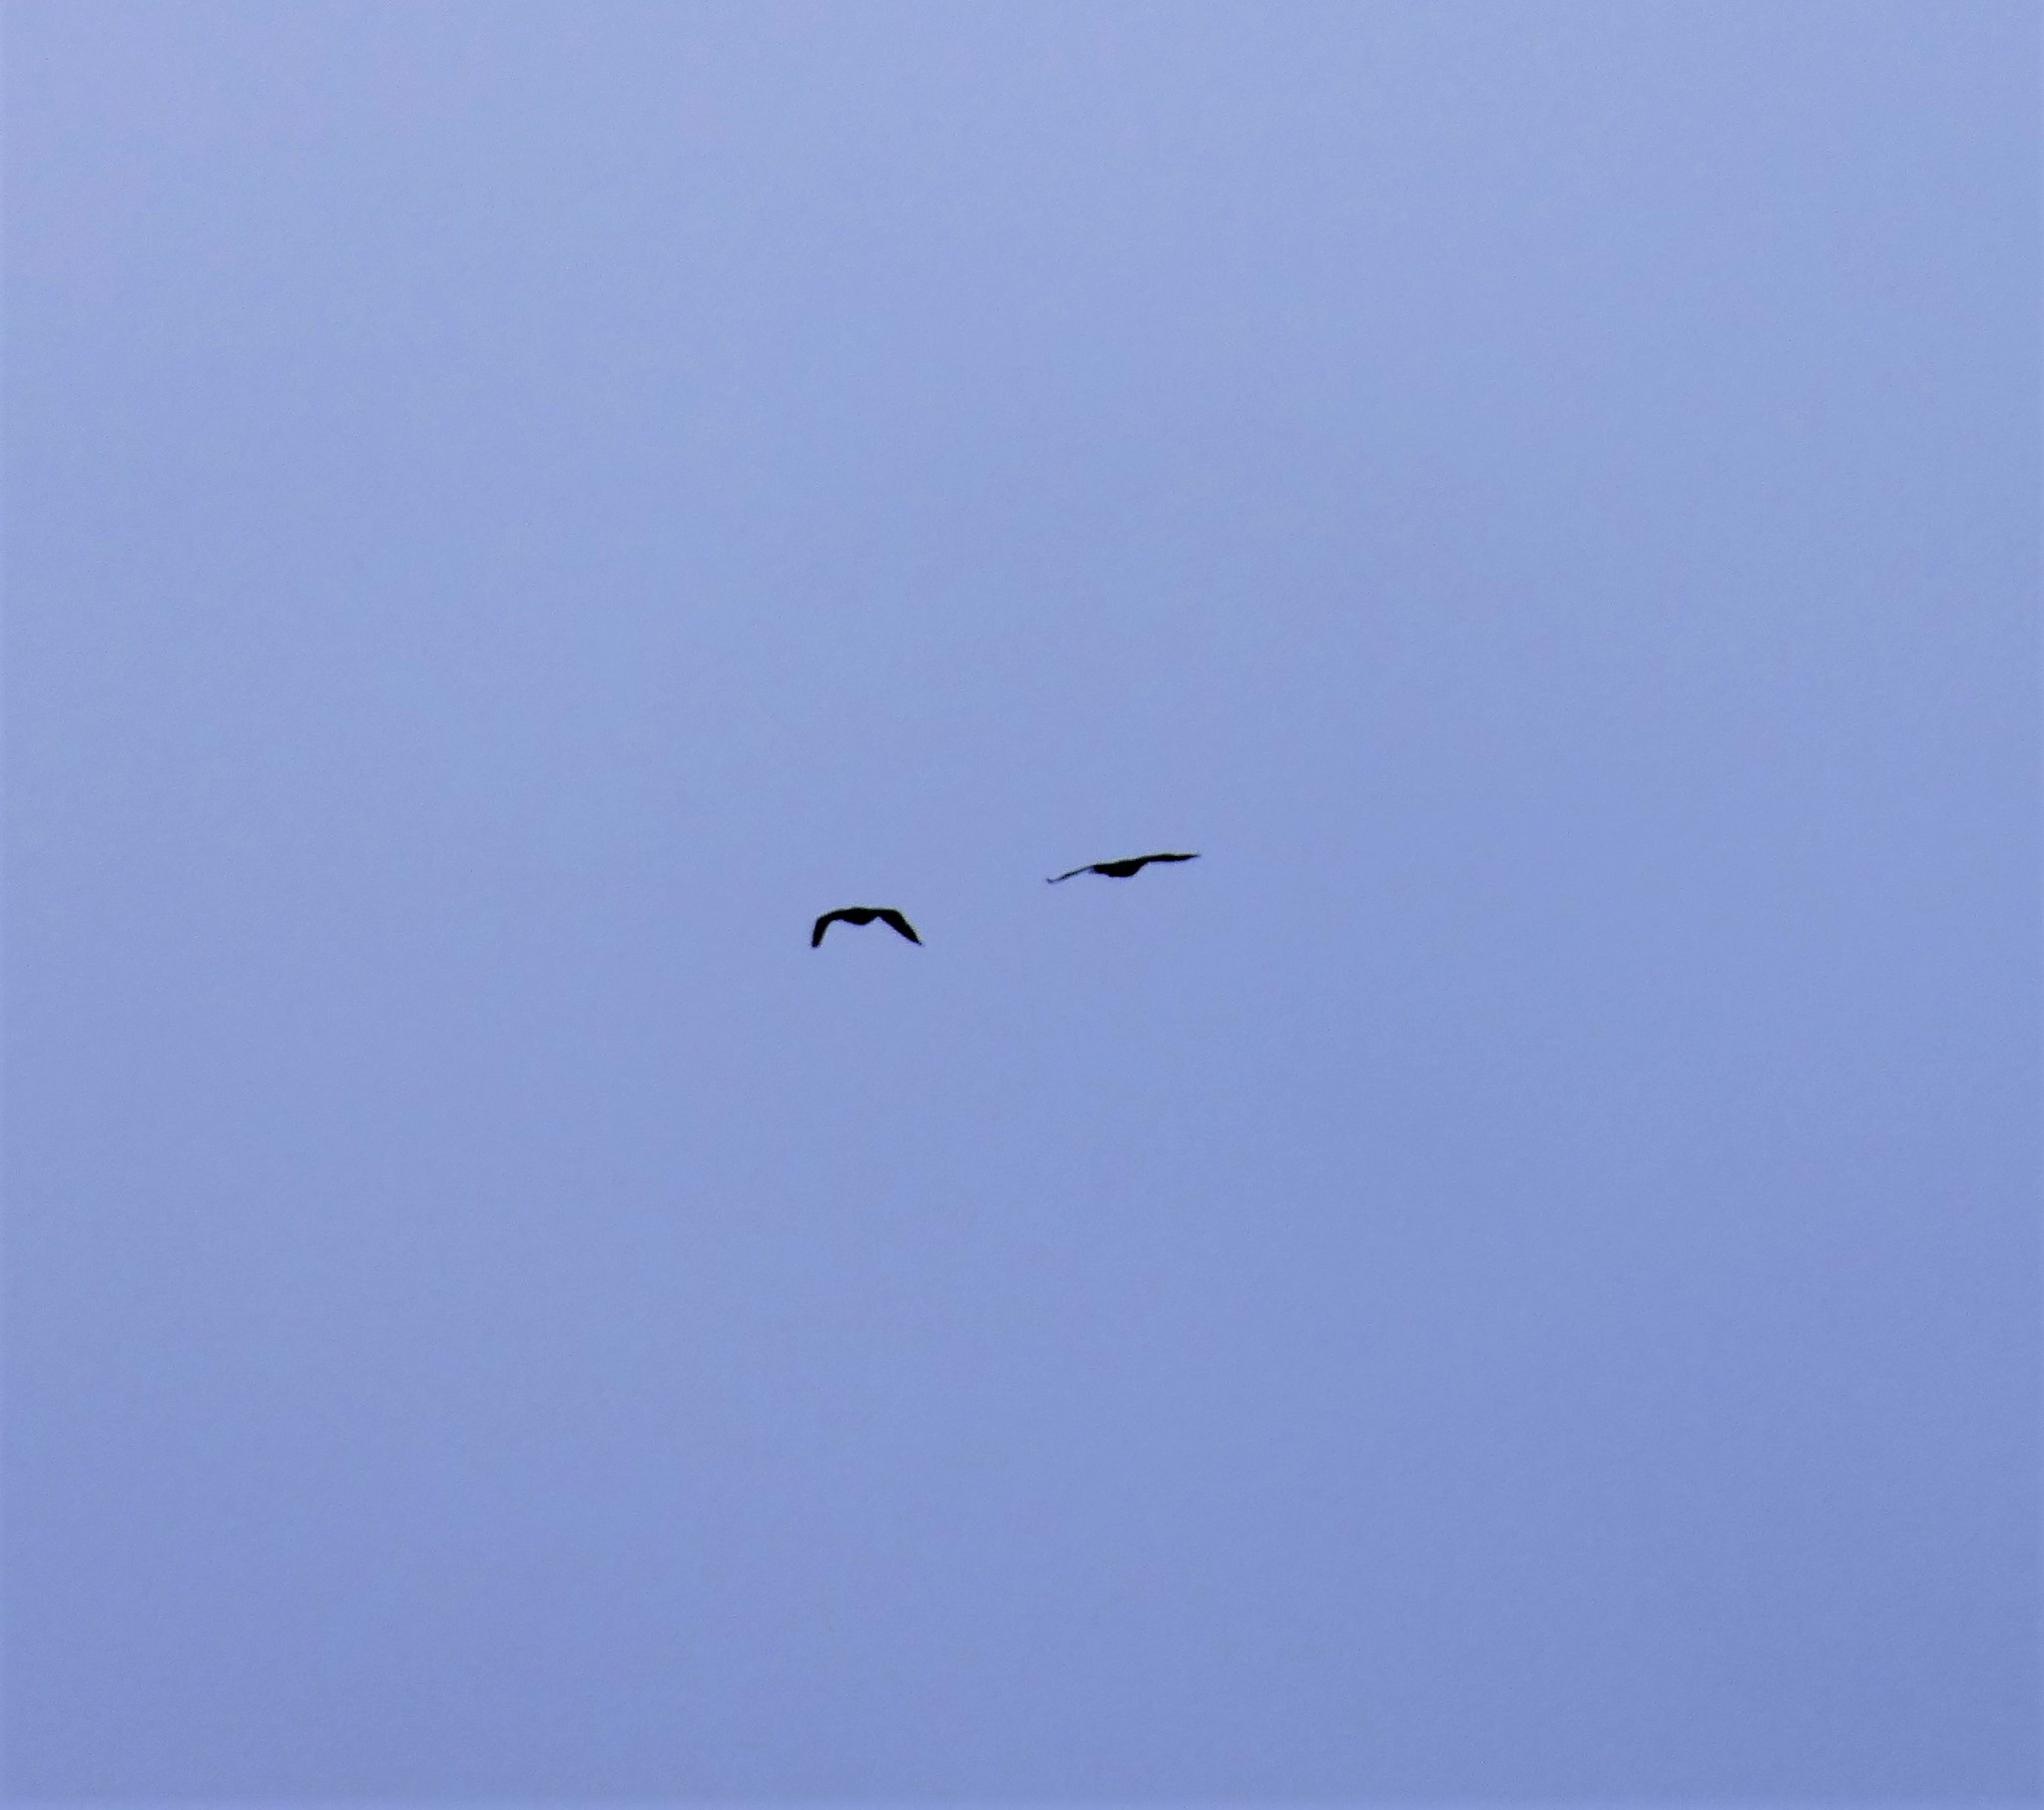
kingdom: Animalia
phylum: Chordata
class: Aves
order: Suliformes
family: Phalacrocoracidae
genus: Phalacrocorax
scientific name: Phalacrocorax carbo
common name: Great cormorant
